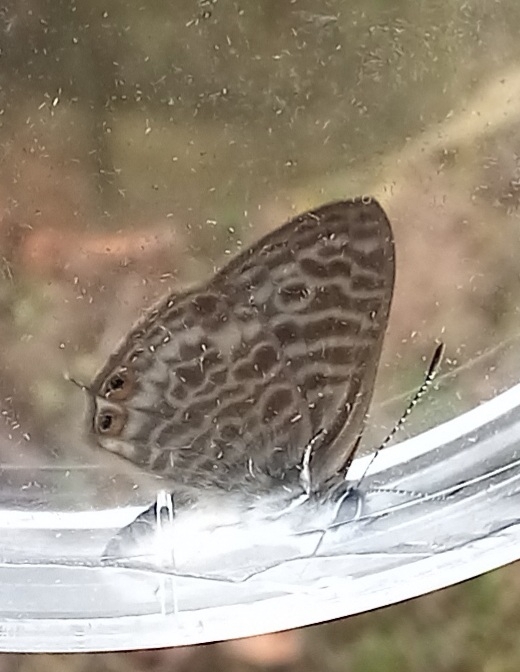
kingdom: Animalia
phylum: Arthropoda
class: Insecta
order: Lepidoptera
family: Lycaenidae
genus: Leptotes
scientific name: Leptotes pirithous
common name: Lang's short-tailed blue
